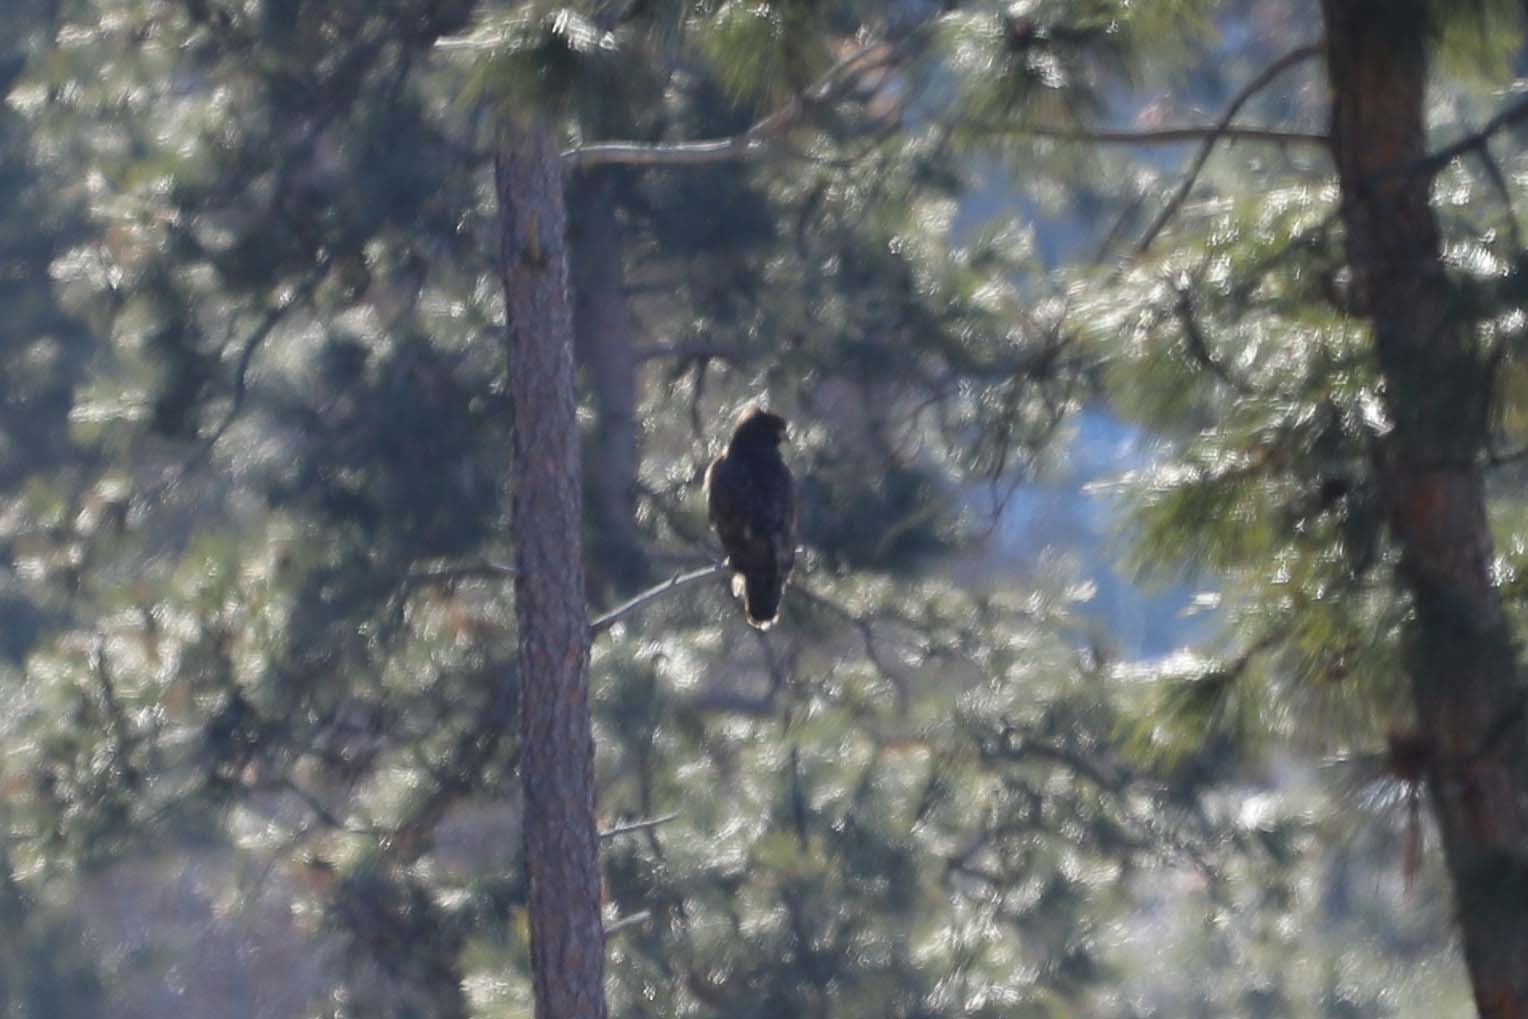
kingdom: Animalia
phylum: Chordata
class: Aves
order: Accipitriformes
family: Accipitridae
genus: Buteo
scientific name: Buteo jamaicensis
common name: Red-tailed hawk
